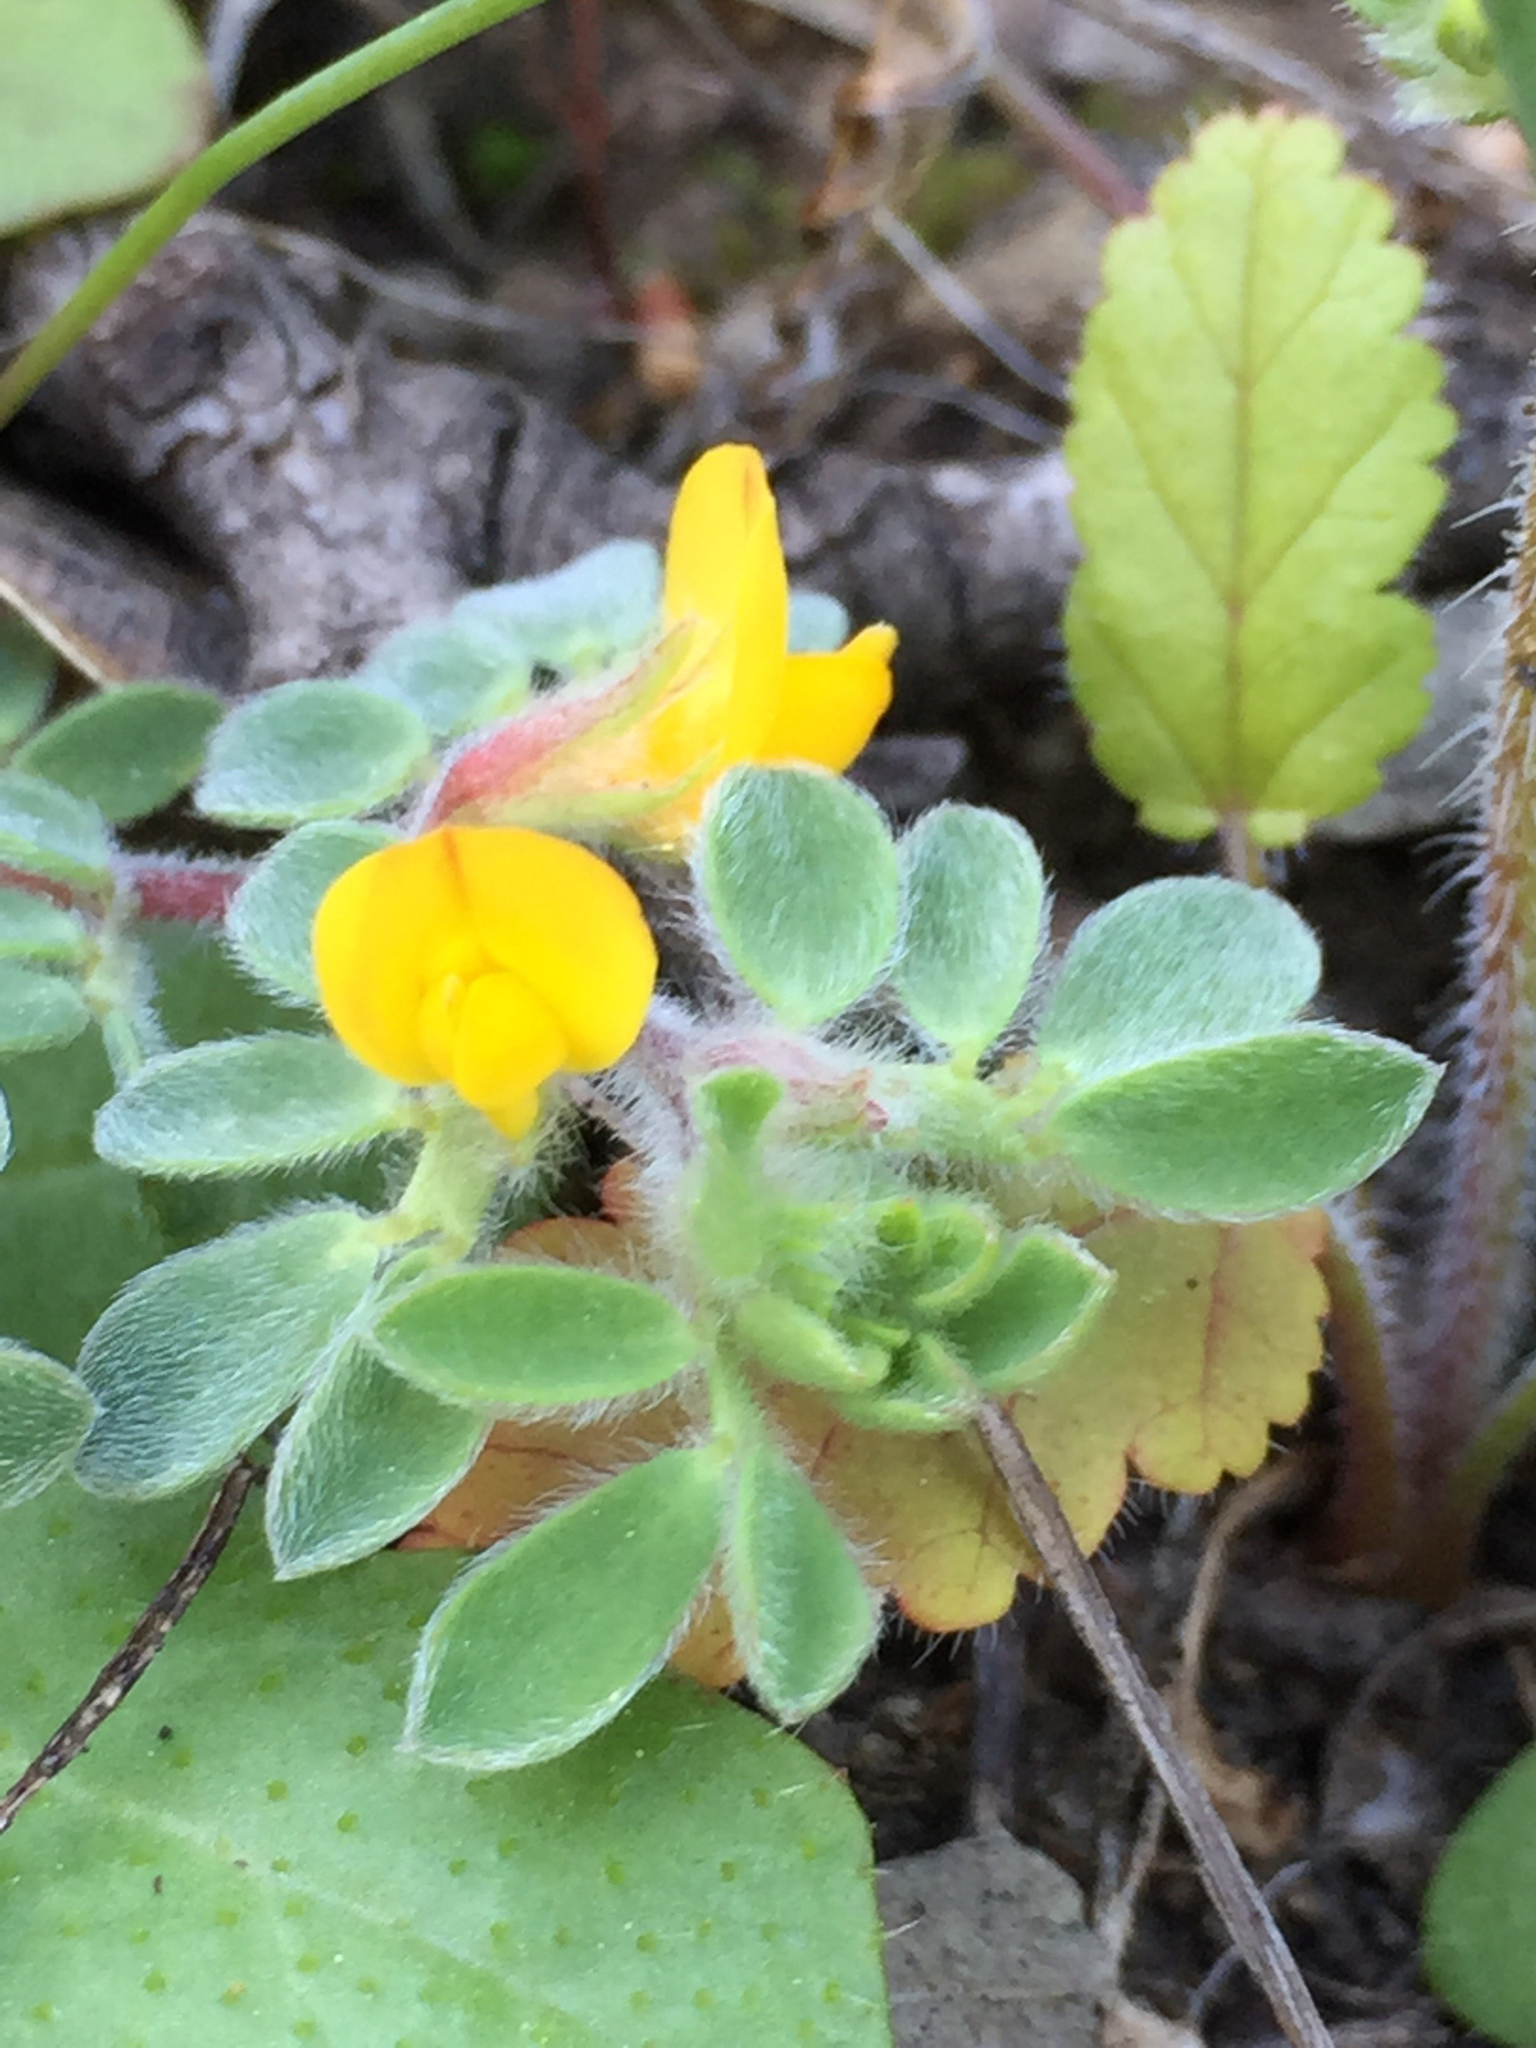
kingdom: Plantae
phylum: Tracheophyta
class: Magnoliopsida
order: Fabales
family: Fabaceae
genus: Acmispon
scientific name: Acmispon brachycarpus
